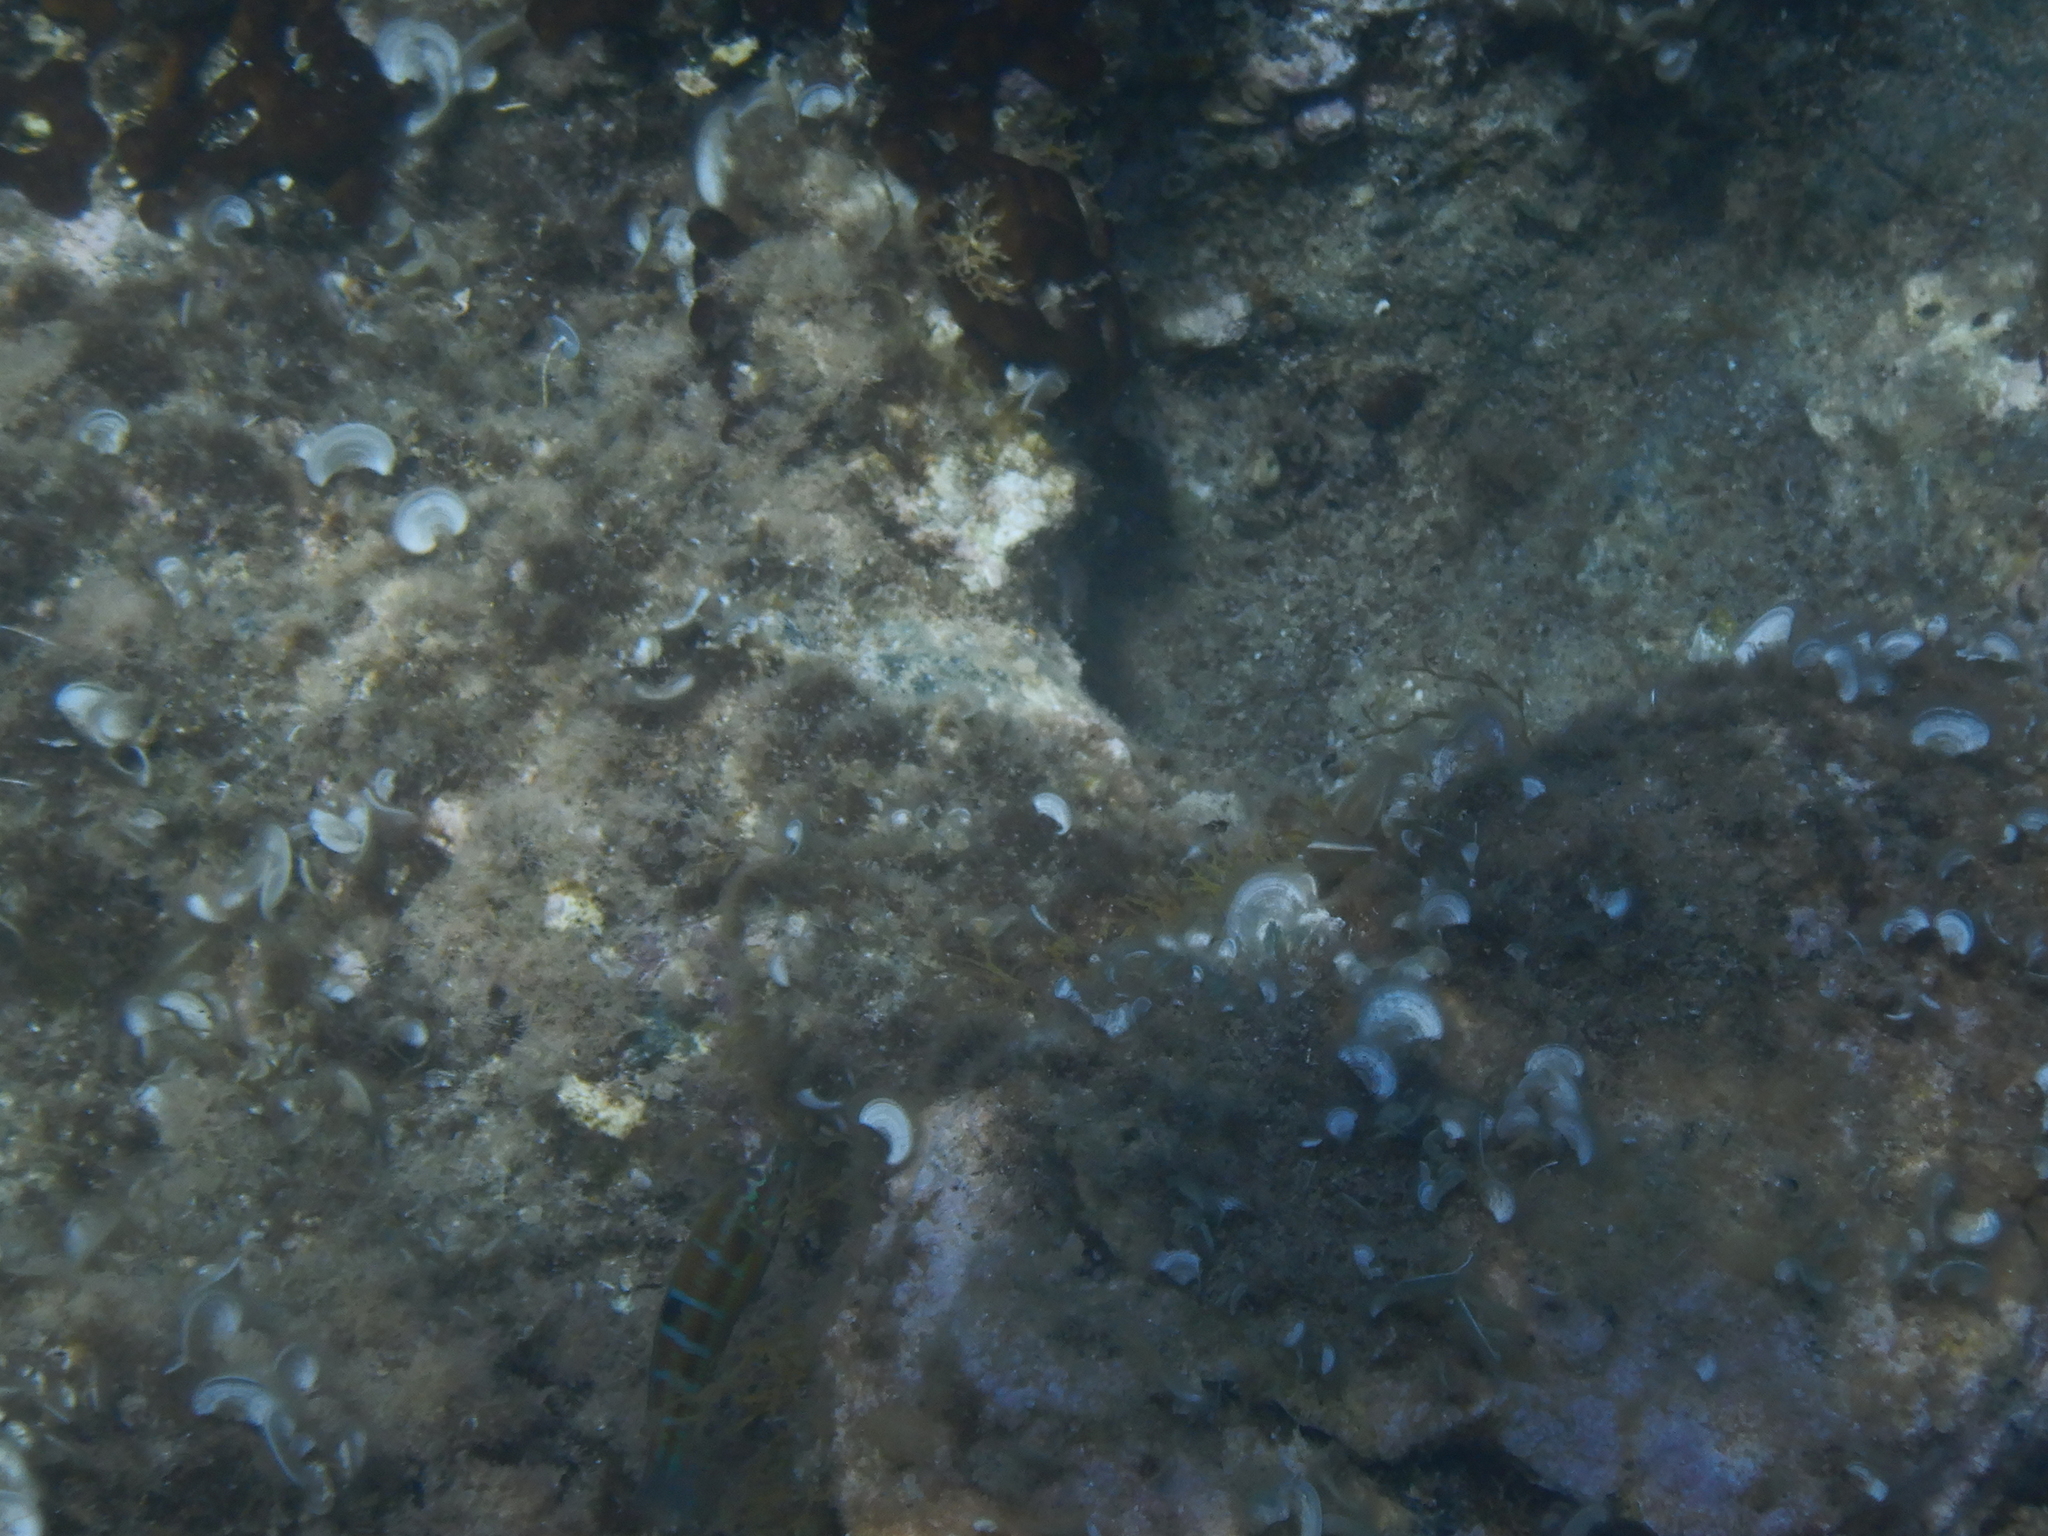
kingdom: Animalia
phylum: Chordata
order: Perciformes
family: Labridae
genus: Thalassoma
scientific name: Thalassoma pavo
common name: Ornate wrasse
